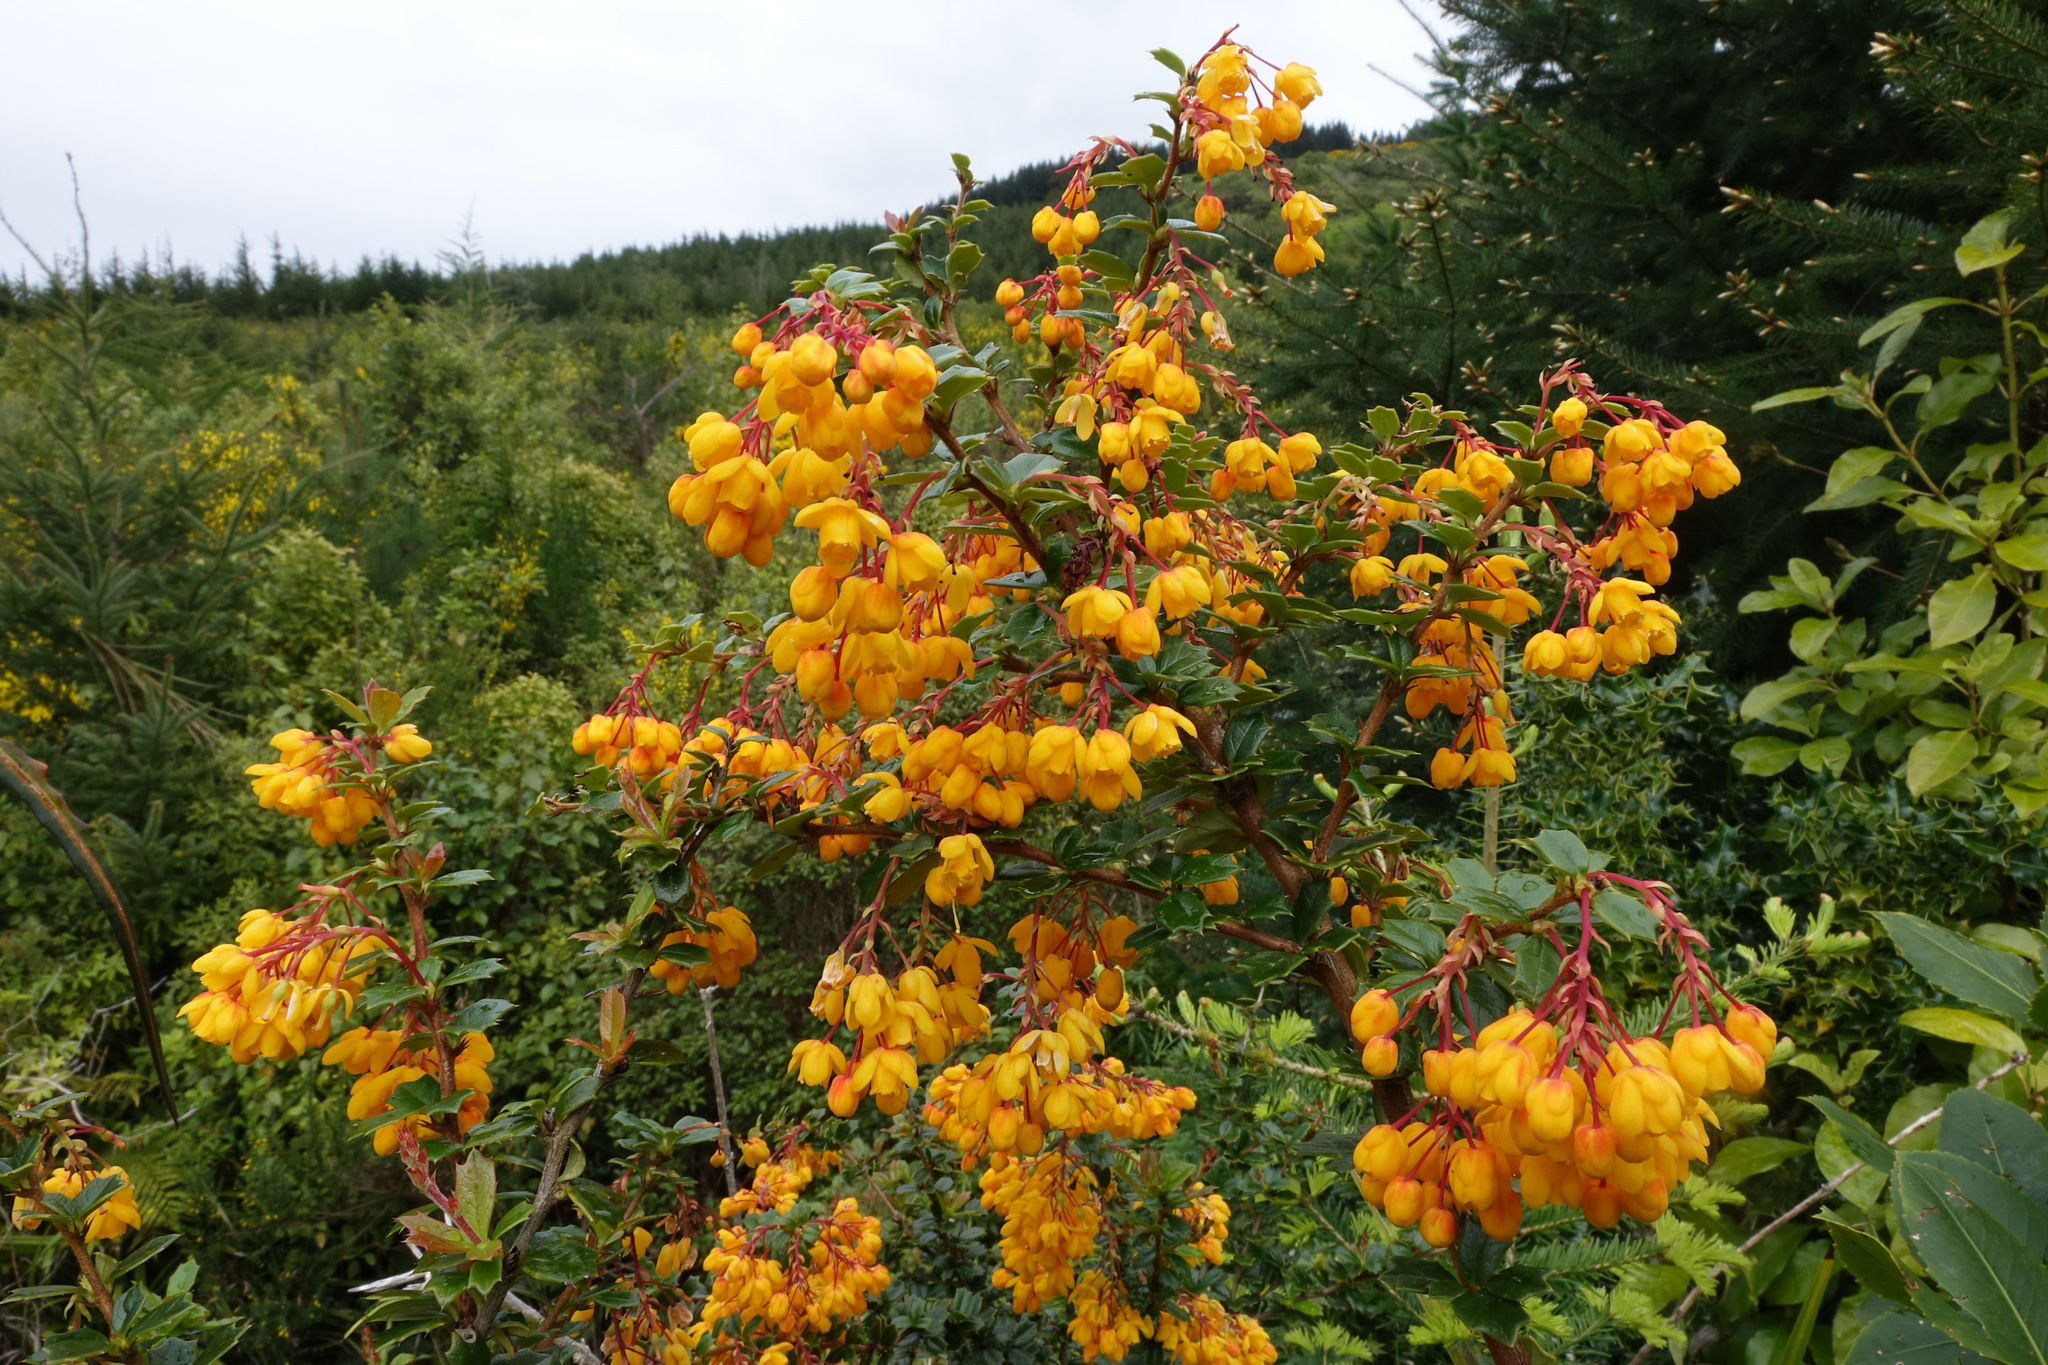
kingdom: Plantae
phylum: Tracheophyta
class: Magnoliopsida
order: Ranunculales
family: Berberidaceae
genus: Berberis
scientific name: Berberis darwinii
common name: Darwin's barberry
